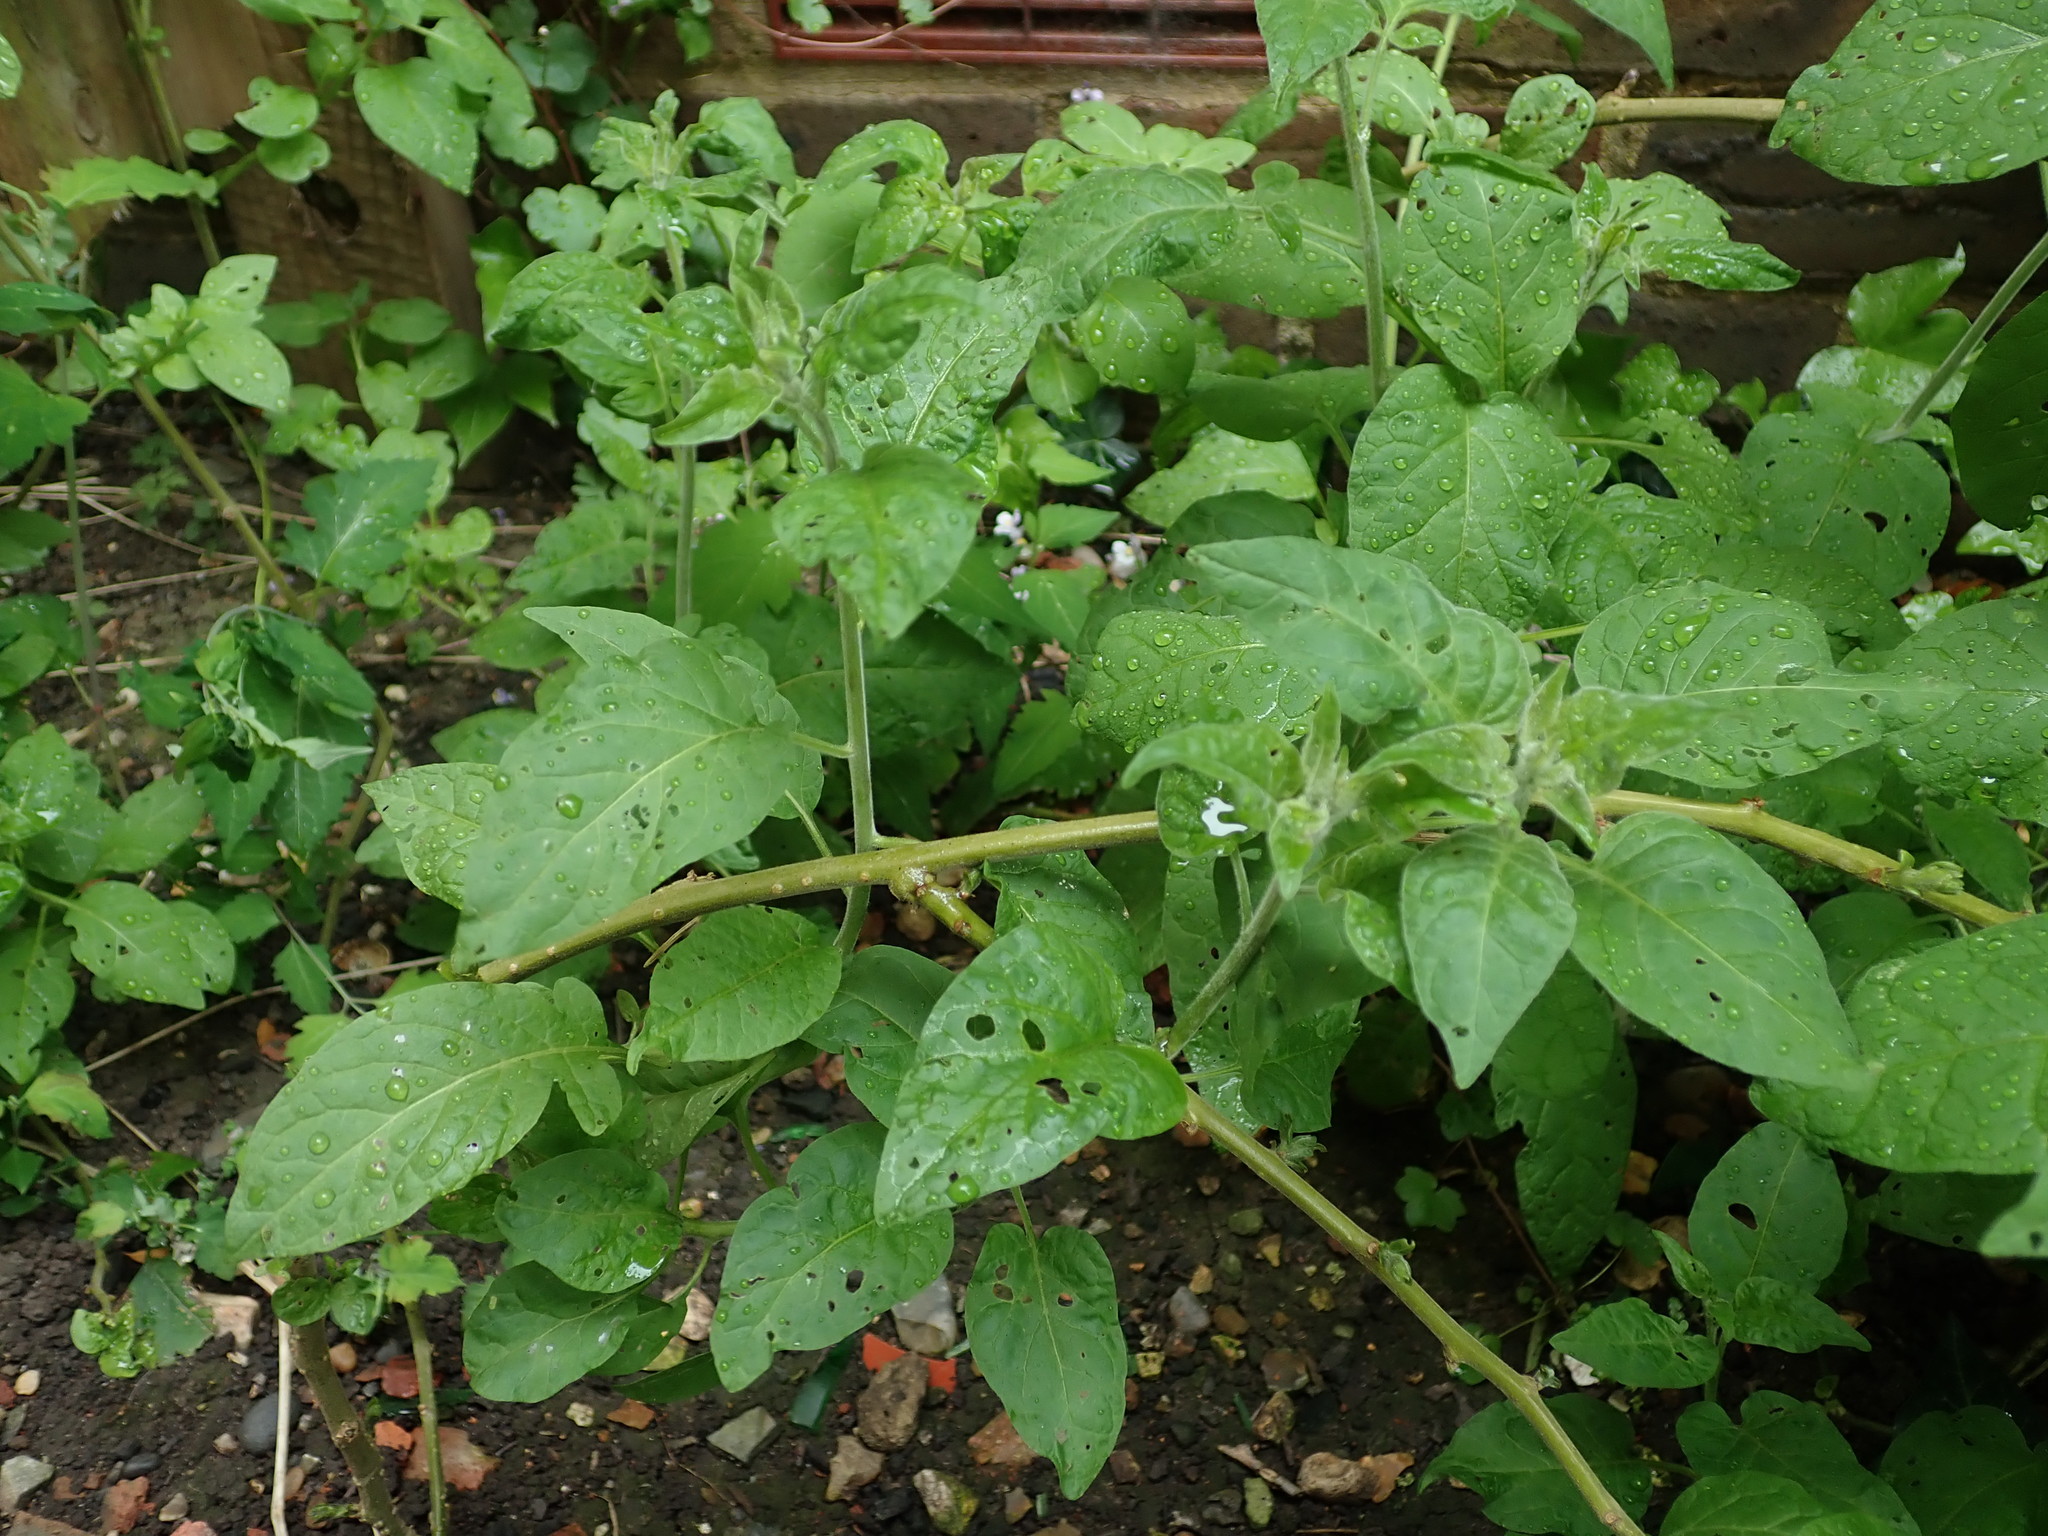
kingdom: Plantae
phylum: Tracheophyta
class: Magnoliopsida
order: Solanales
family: Solanaceae
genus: Solanum
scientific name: Solanum dulcamara
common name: Climbing nightshade
